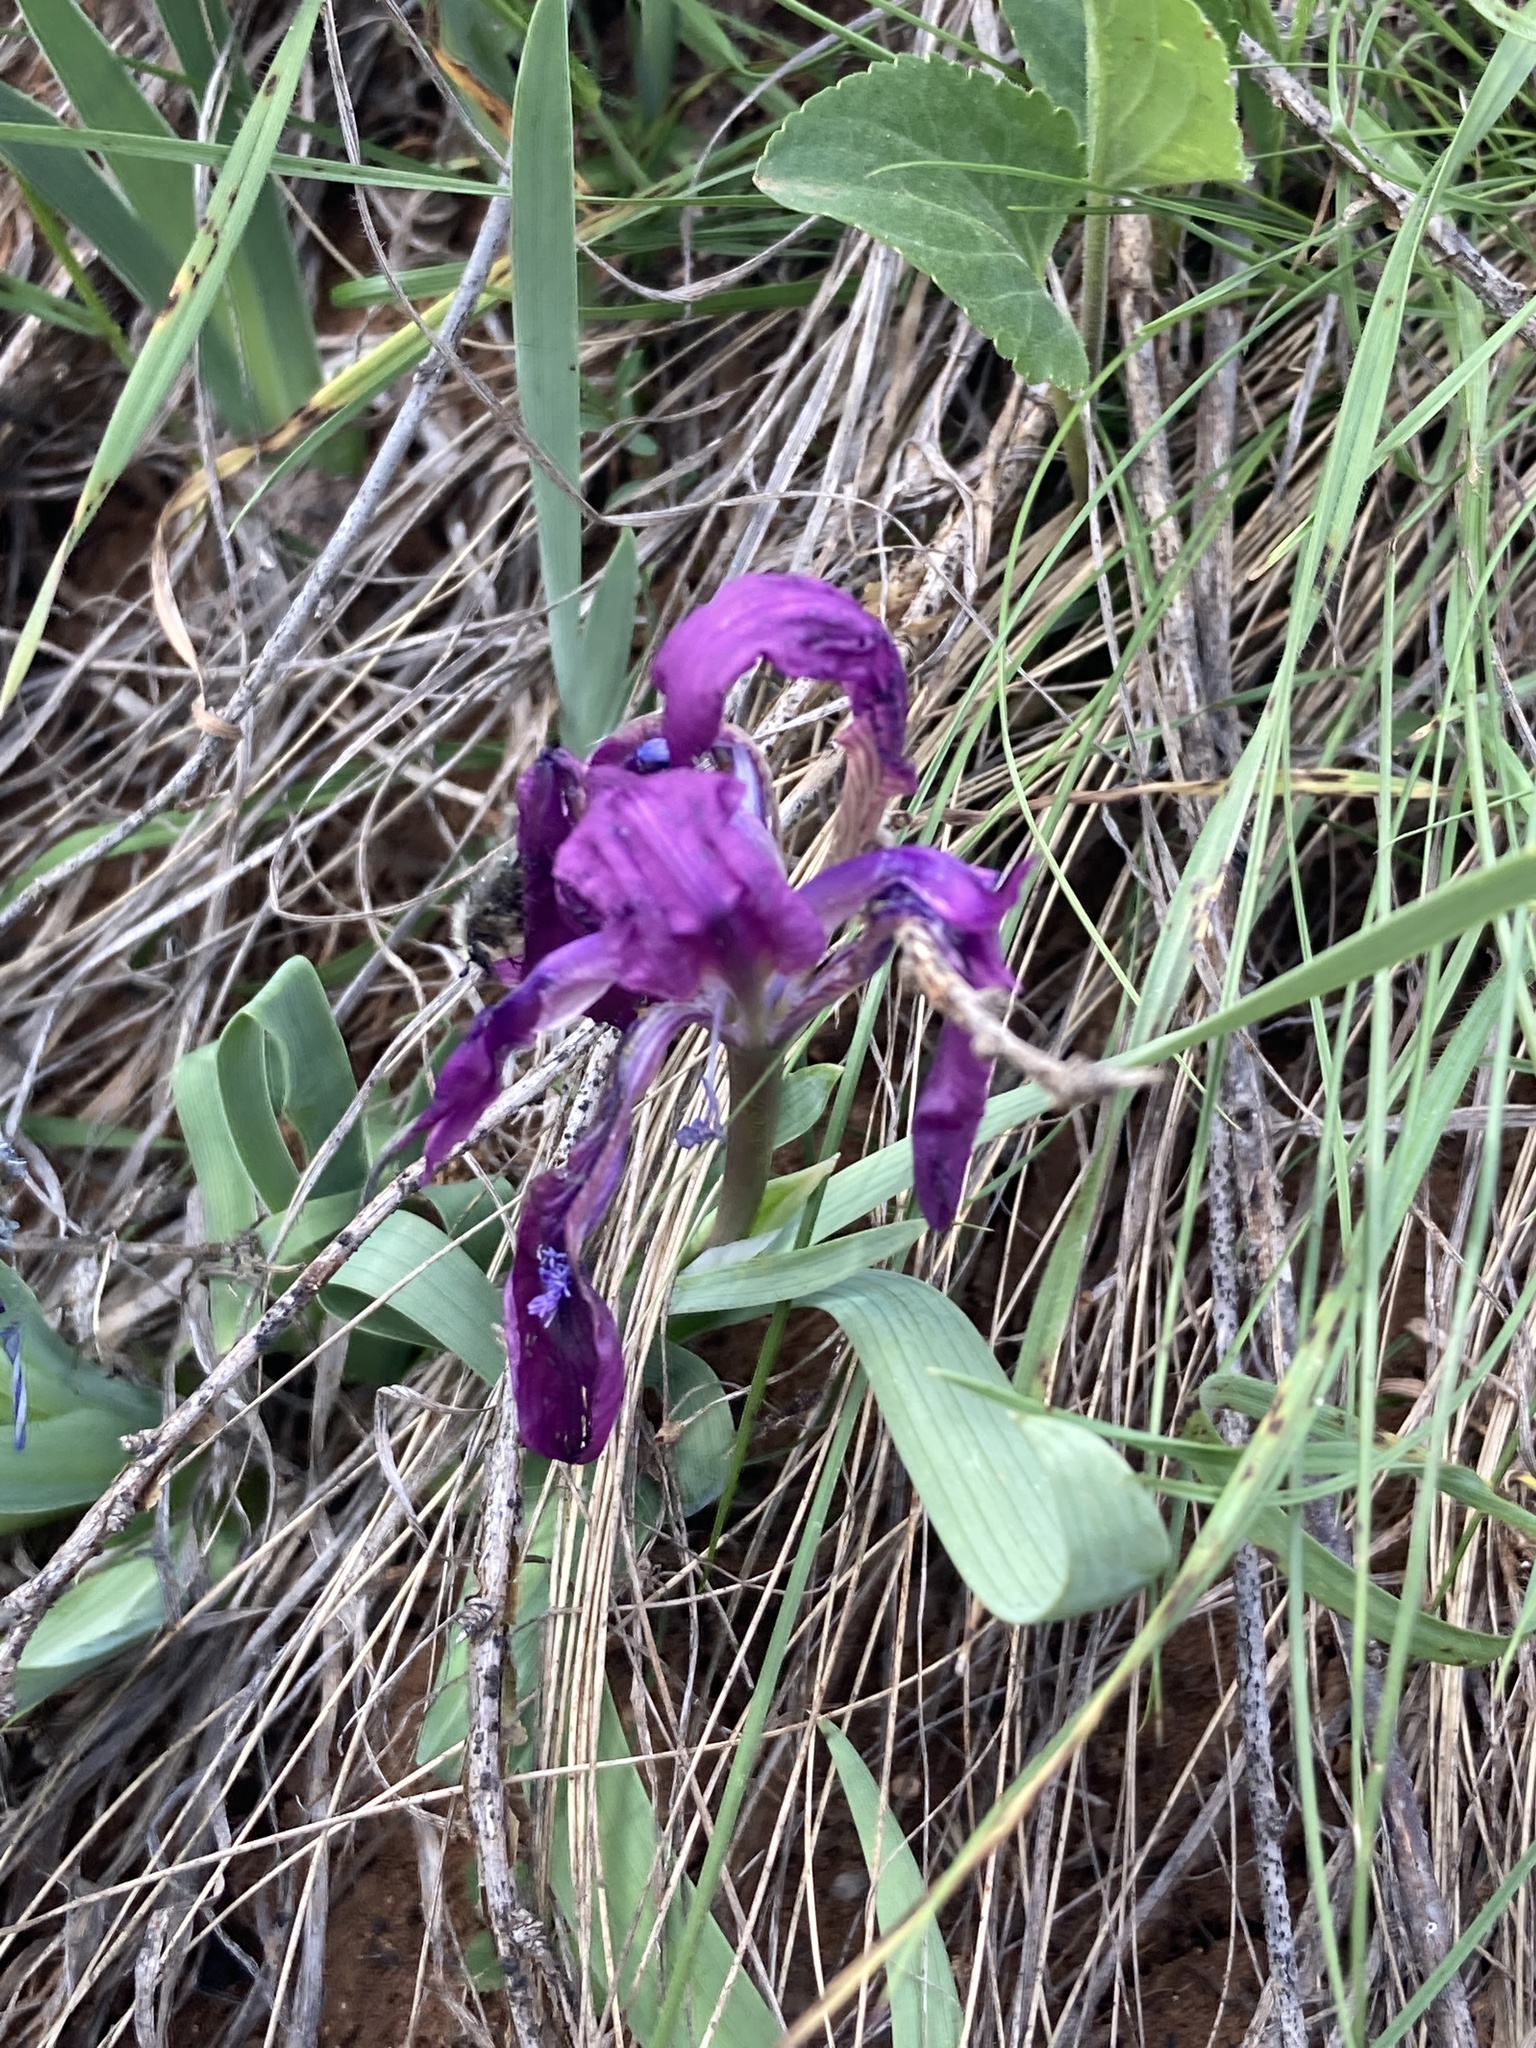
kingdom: Plantae
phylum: Tracheophyta
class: Liliopsida
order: Asparagales
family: Iridaceae
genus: Iris
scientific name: Iris pumila
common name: Dwarf iris
